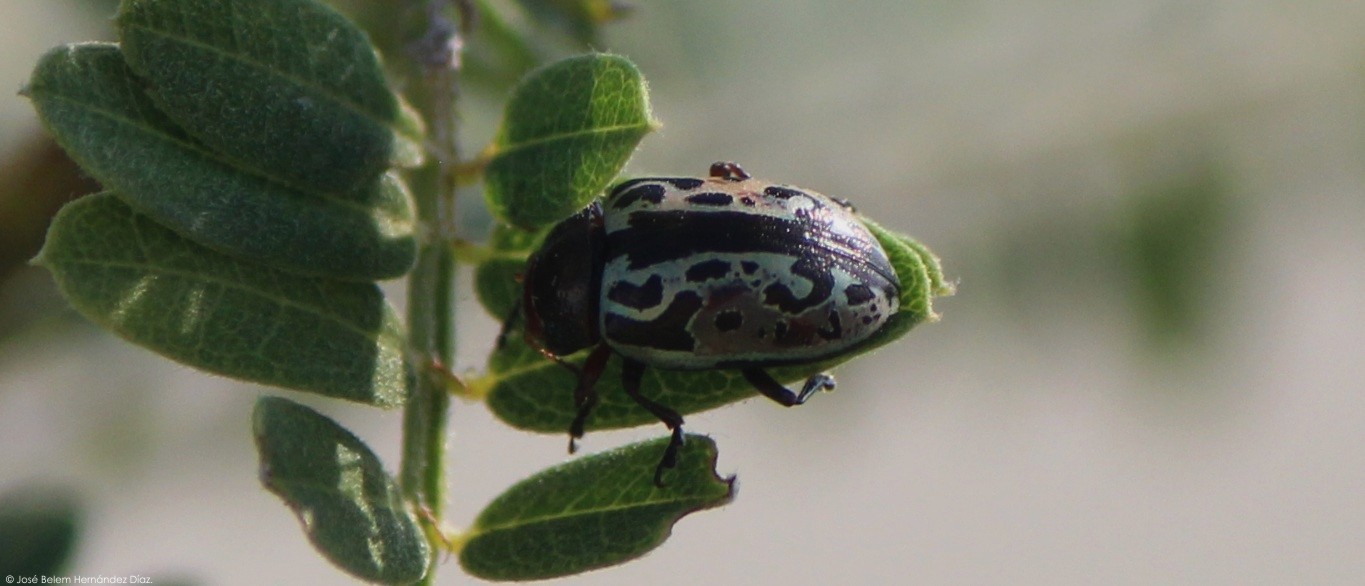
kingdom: Animalia
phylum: Arthropoda
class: Insecta
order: Coleoptera
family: Chrysomelidae
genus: Calligrapha
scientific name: Calligrapha
